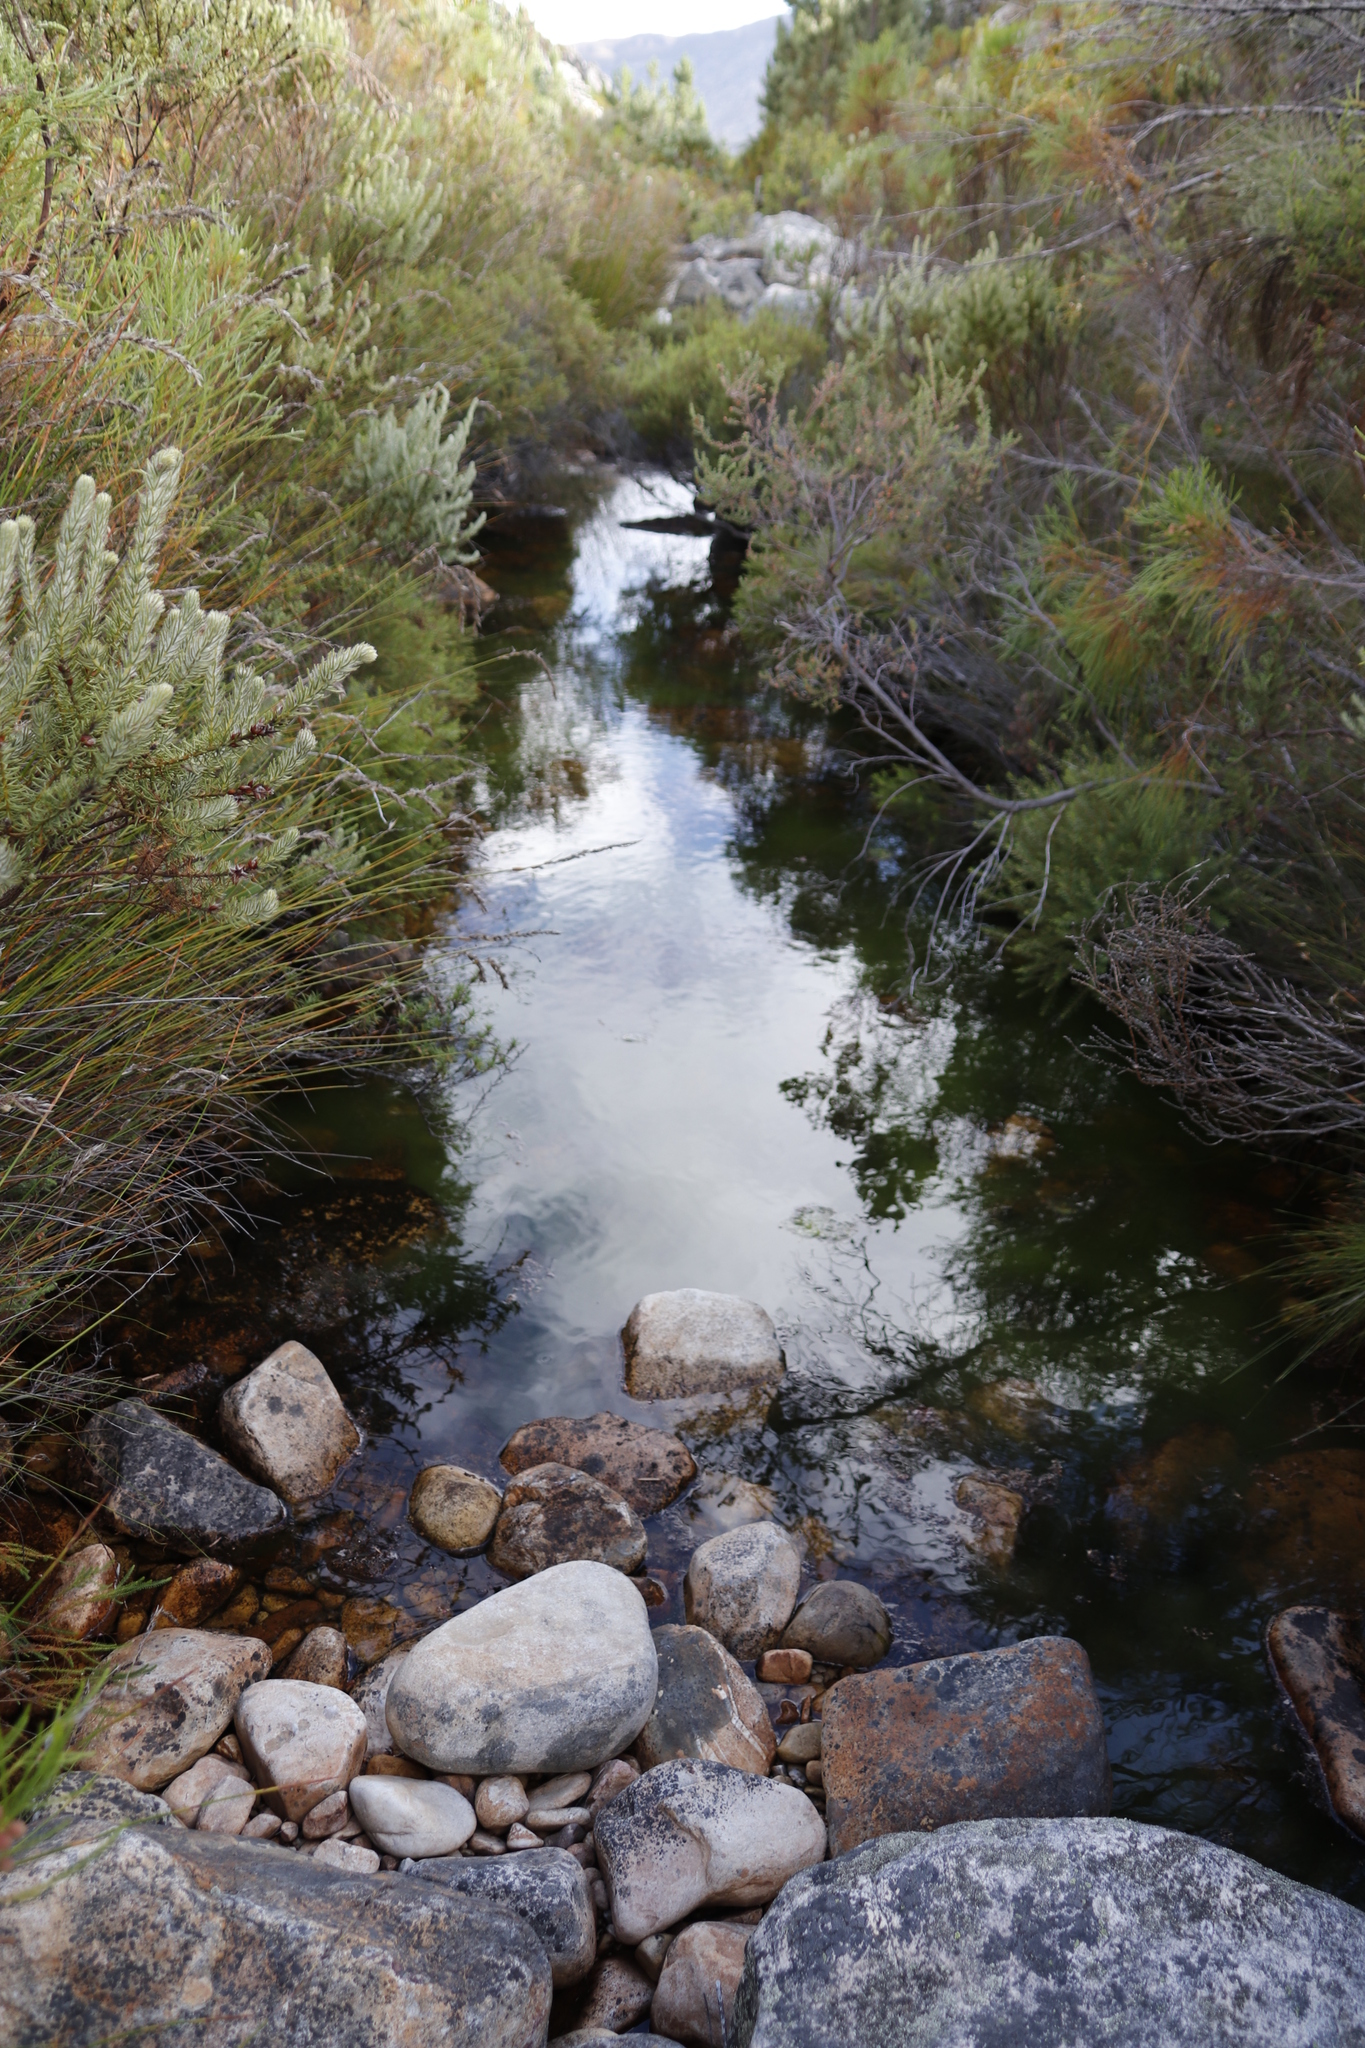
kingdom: Plantae
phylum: Tracheophyta
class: Magnoliopsida
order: Bruniales
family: Bruniaceae
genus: Brunia
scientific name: Brunia africana
